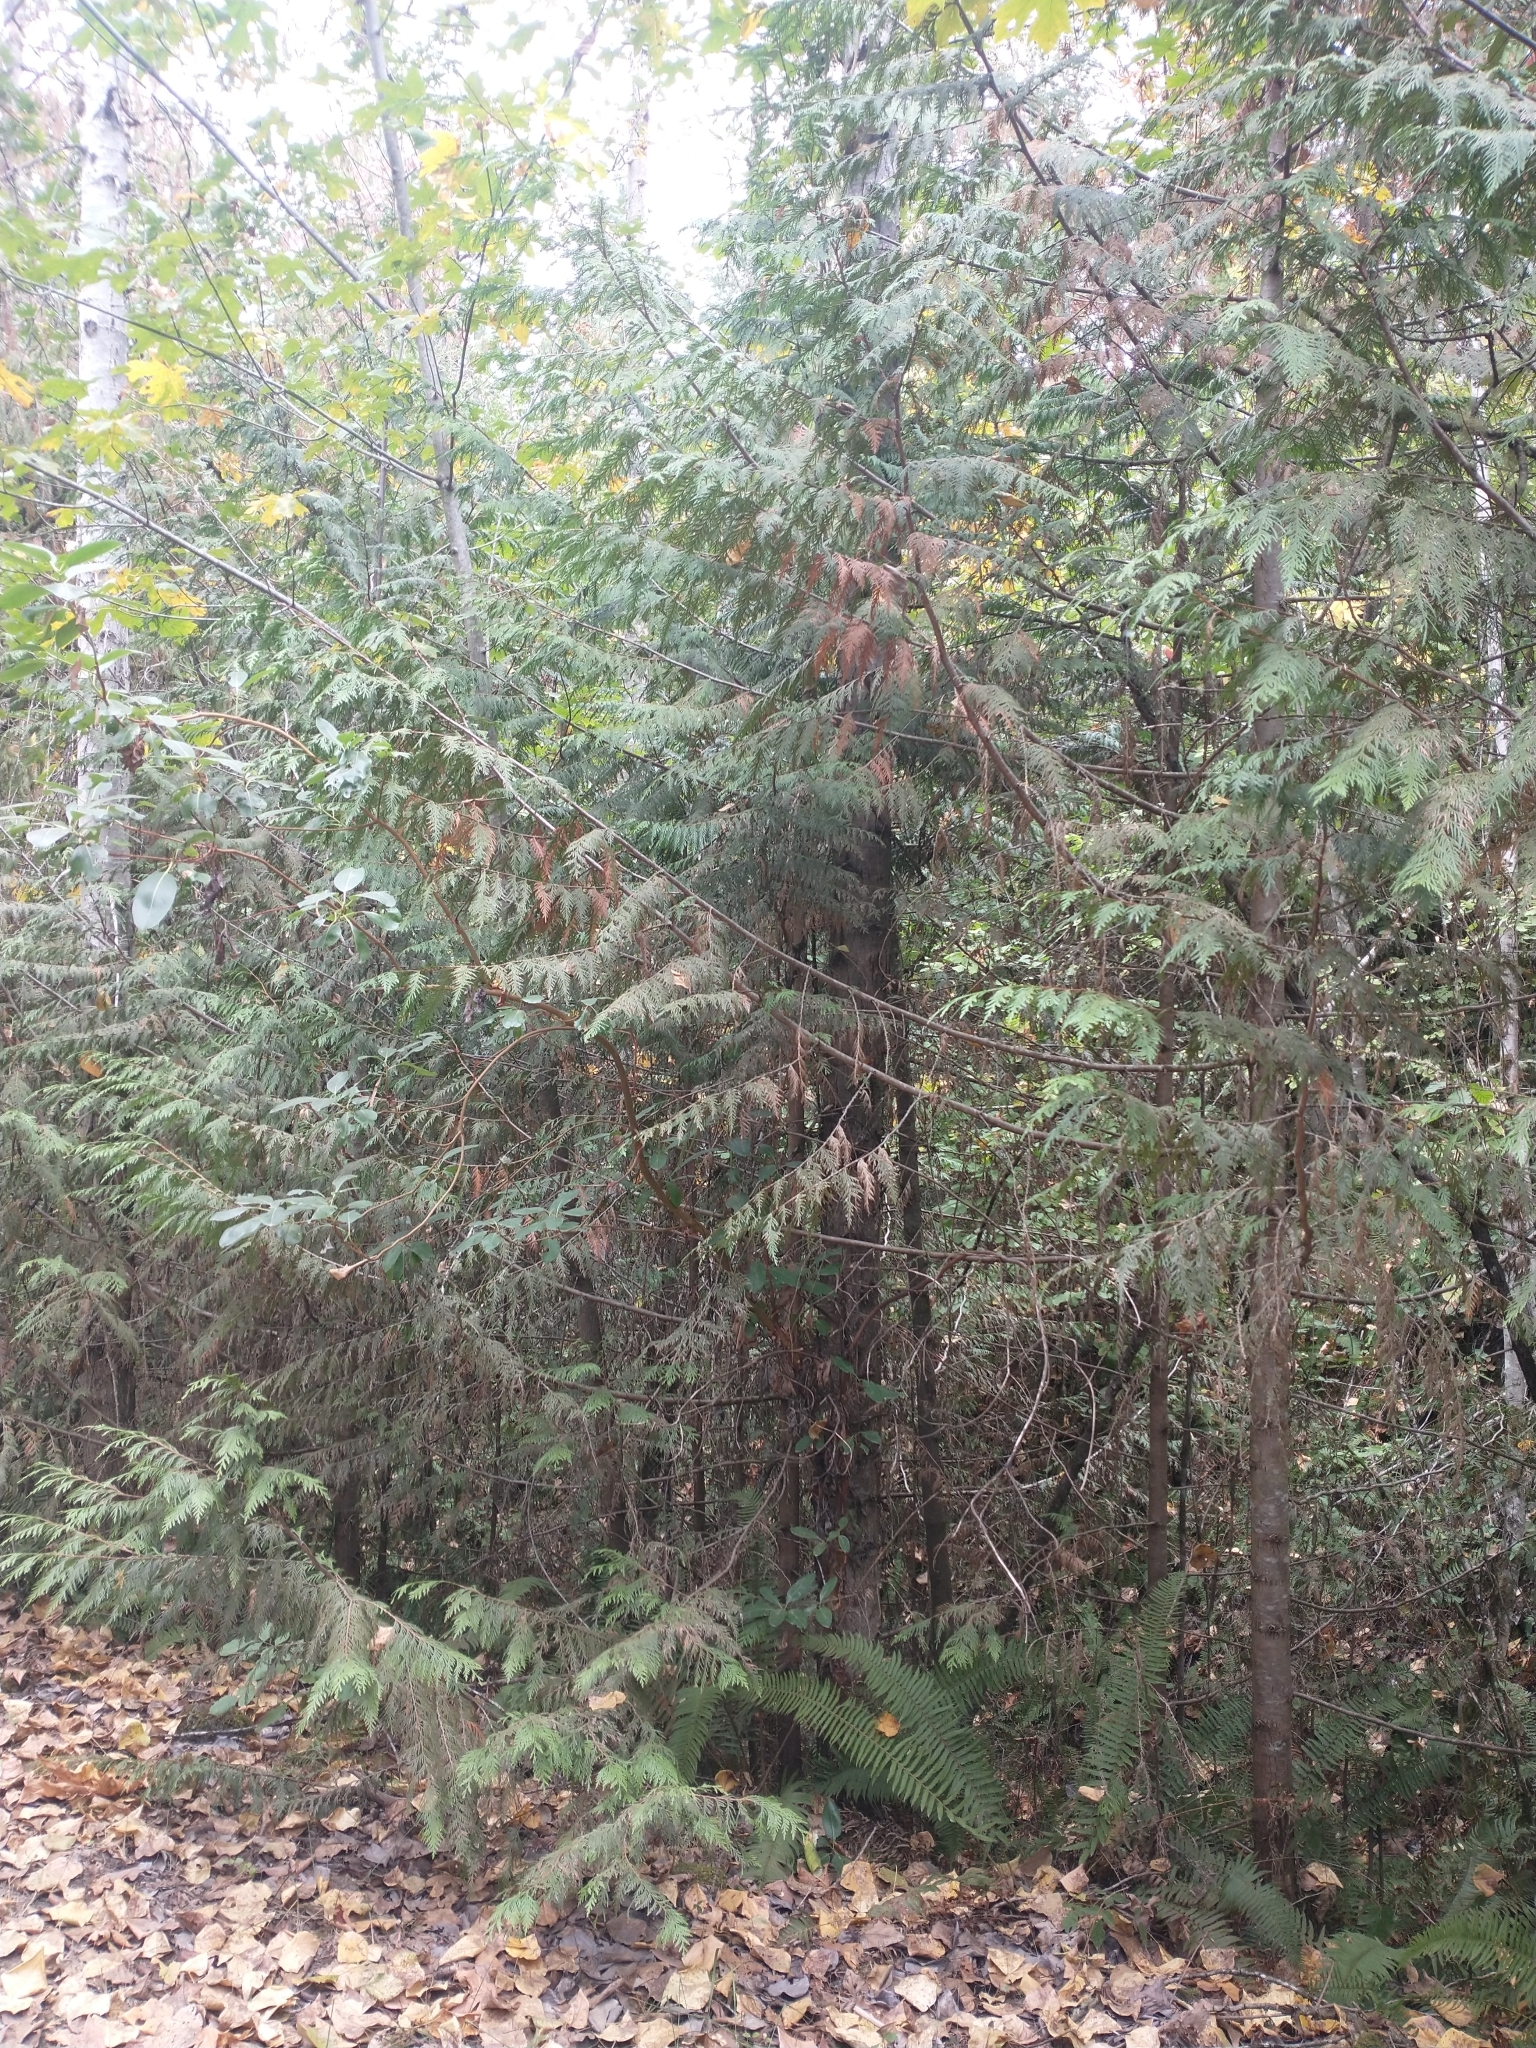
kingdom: Plantae
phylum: Tracheophyta
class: Pinopsida
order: Pinales
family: Cupressaceae
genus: Thuja
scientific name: Thuja plicata
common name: Western red-cedar
